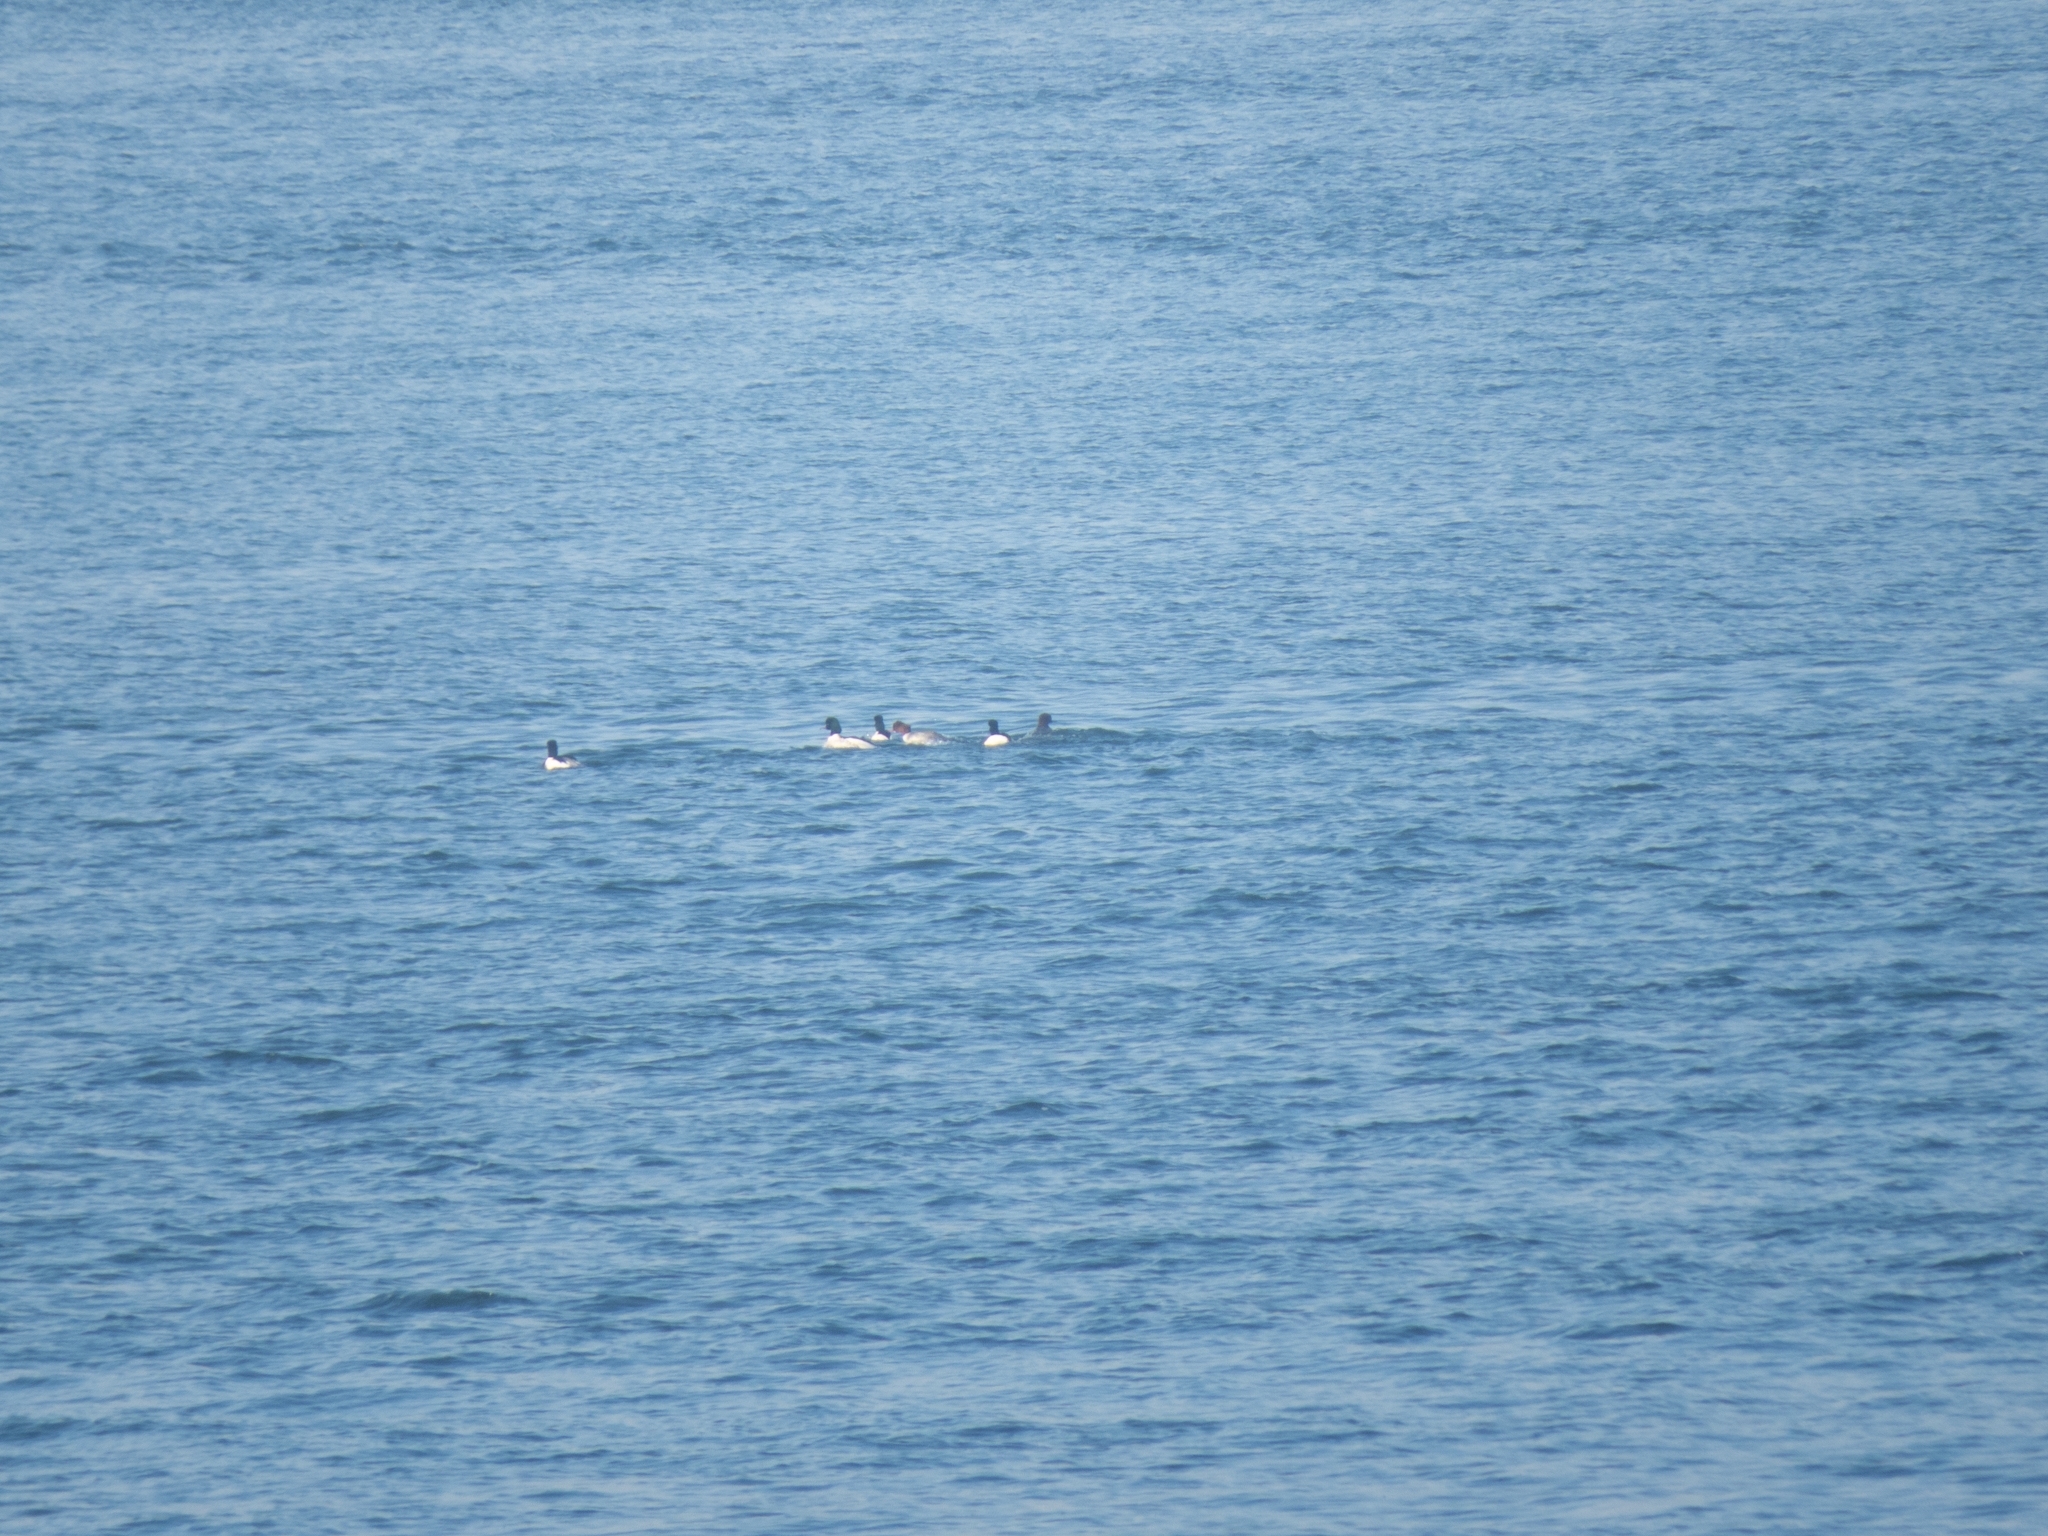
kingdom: Animalia
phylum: Chordata
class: Aves
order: Anseriformes
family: Anatidae
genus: Mergus
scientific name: Mergus merganser
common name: Common merganser
